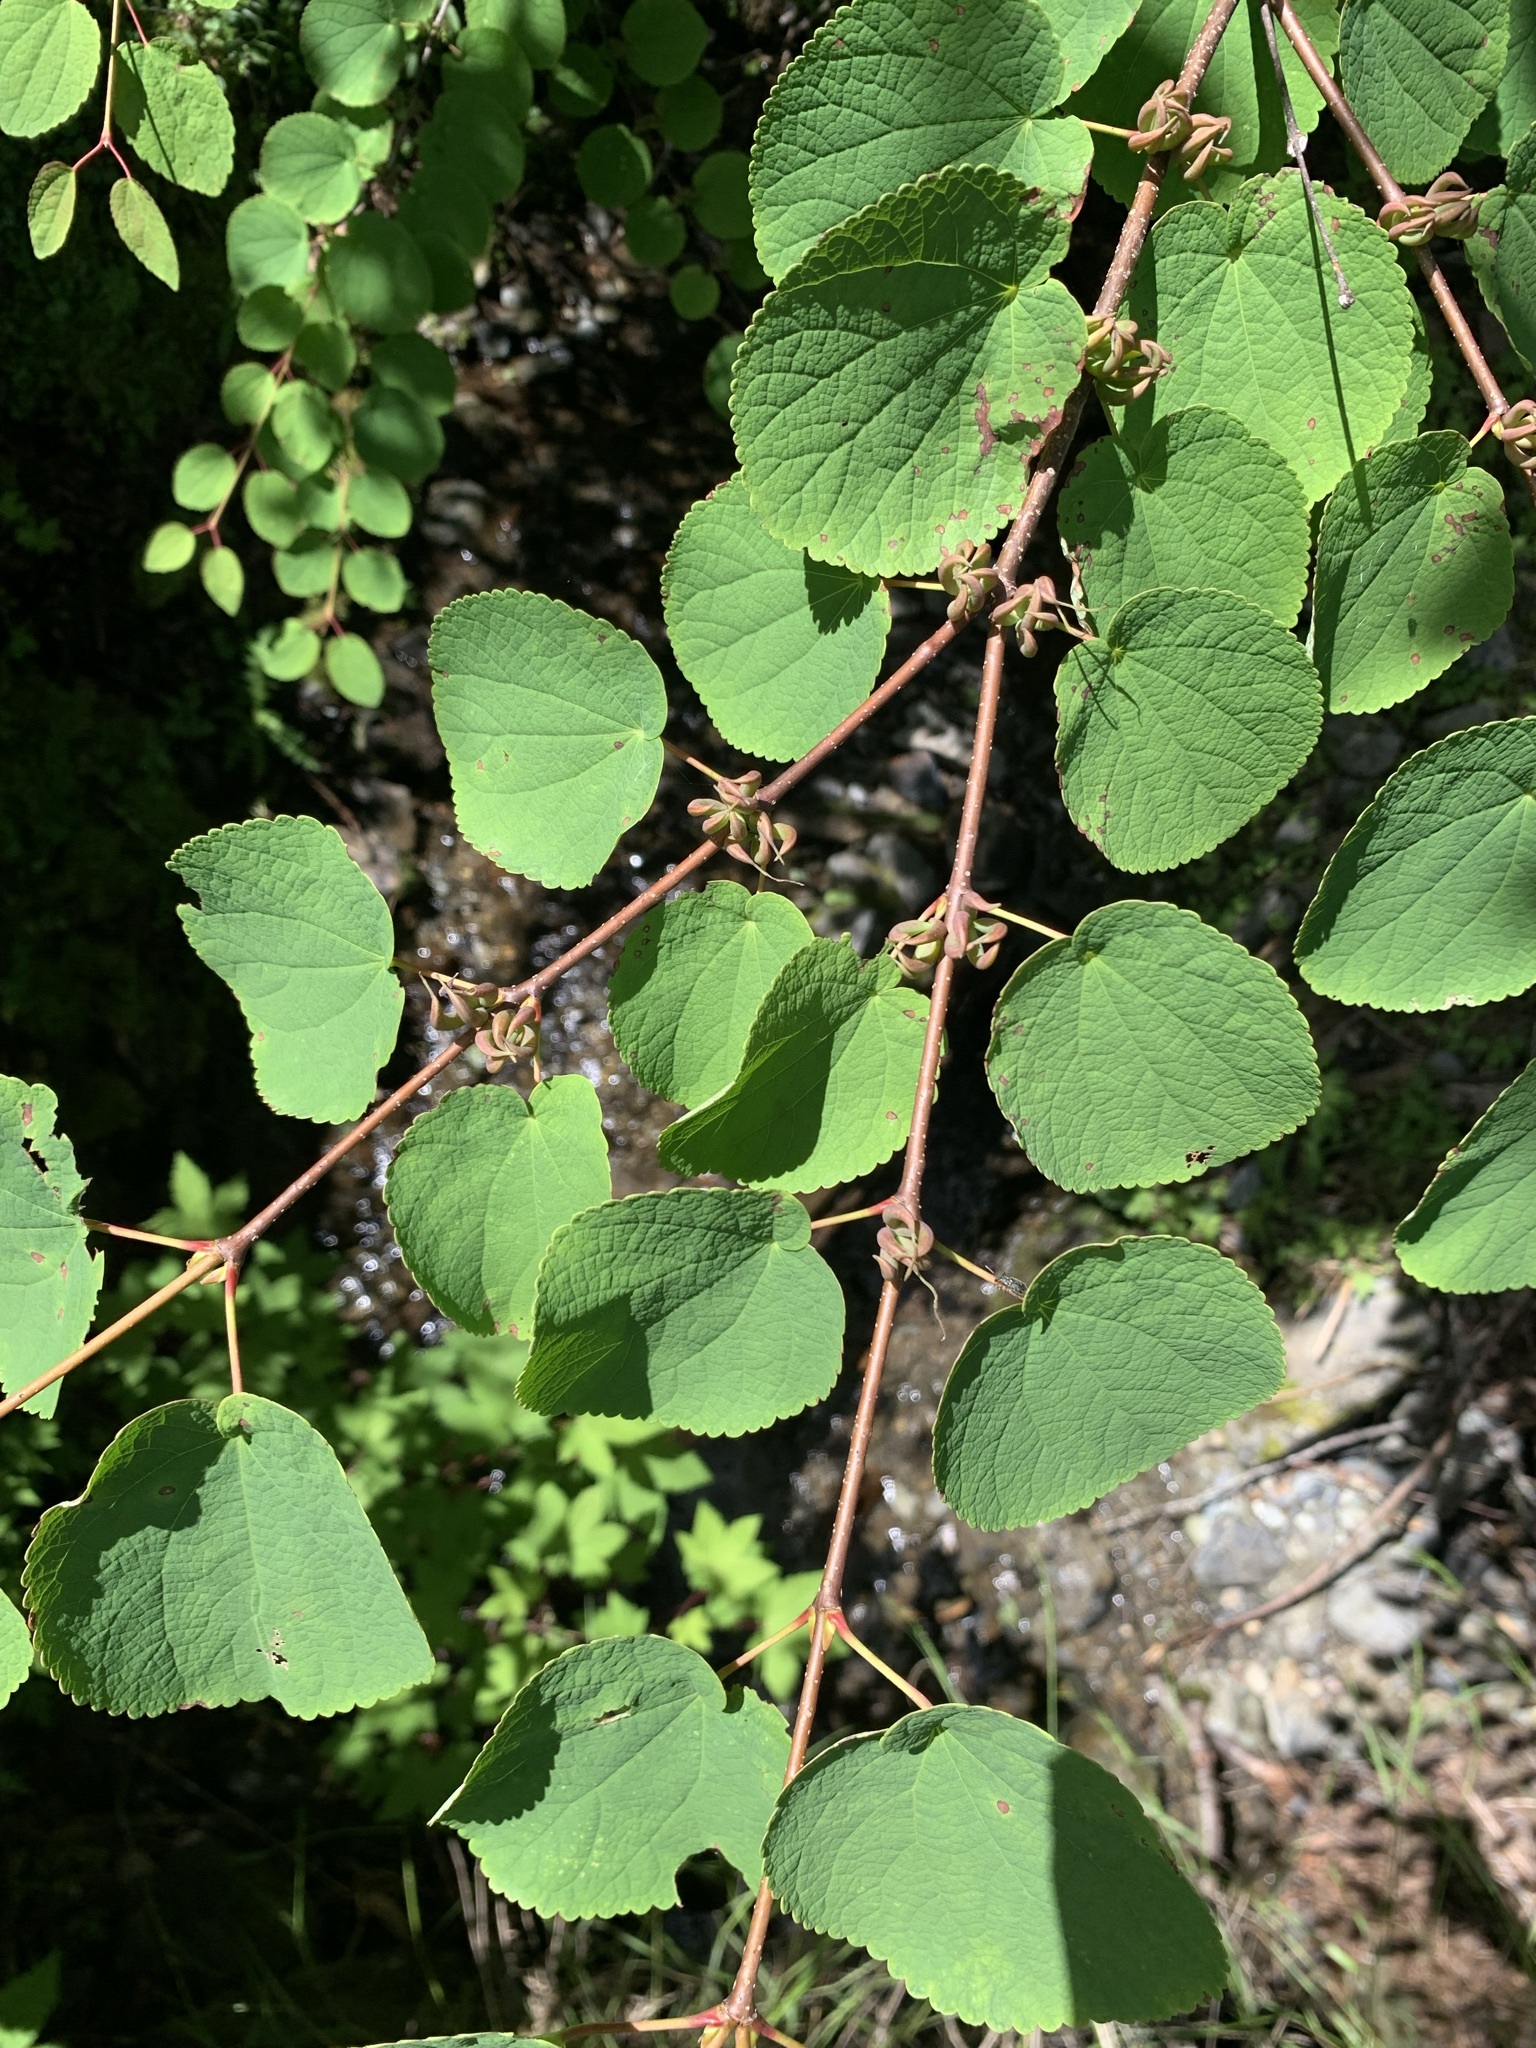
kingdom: Plantae
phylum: Tracheophyta
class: Magnoliopsida
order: Saxifragales
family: Cercidiphyllaceae
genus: Cercidiphyllum
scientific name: Cercidiphyllum magnificum
